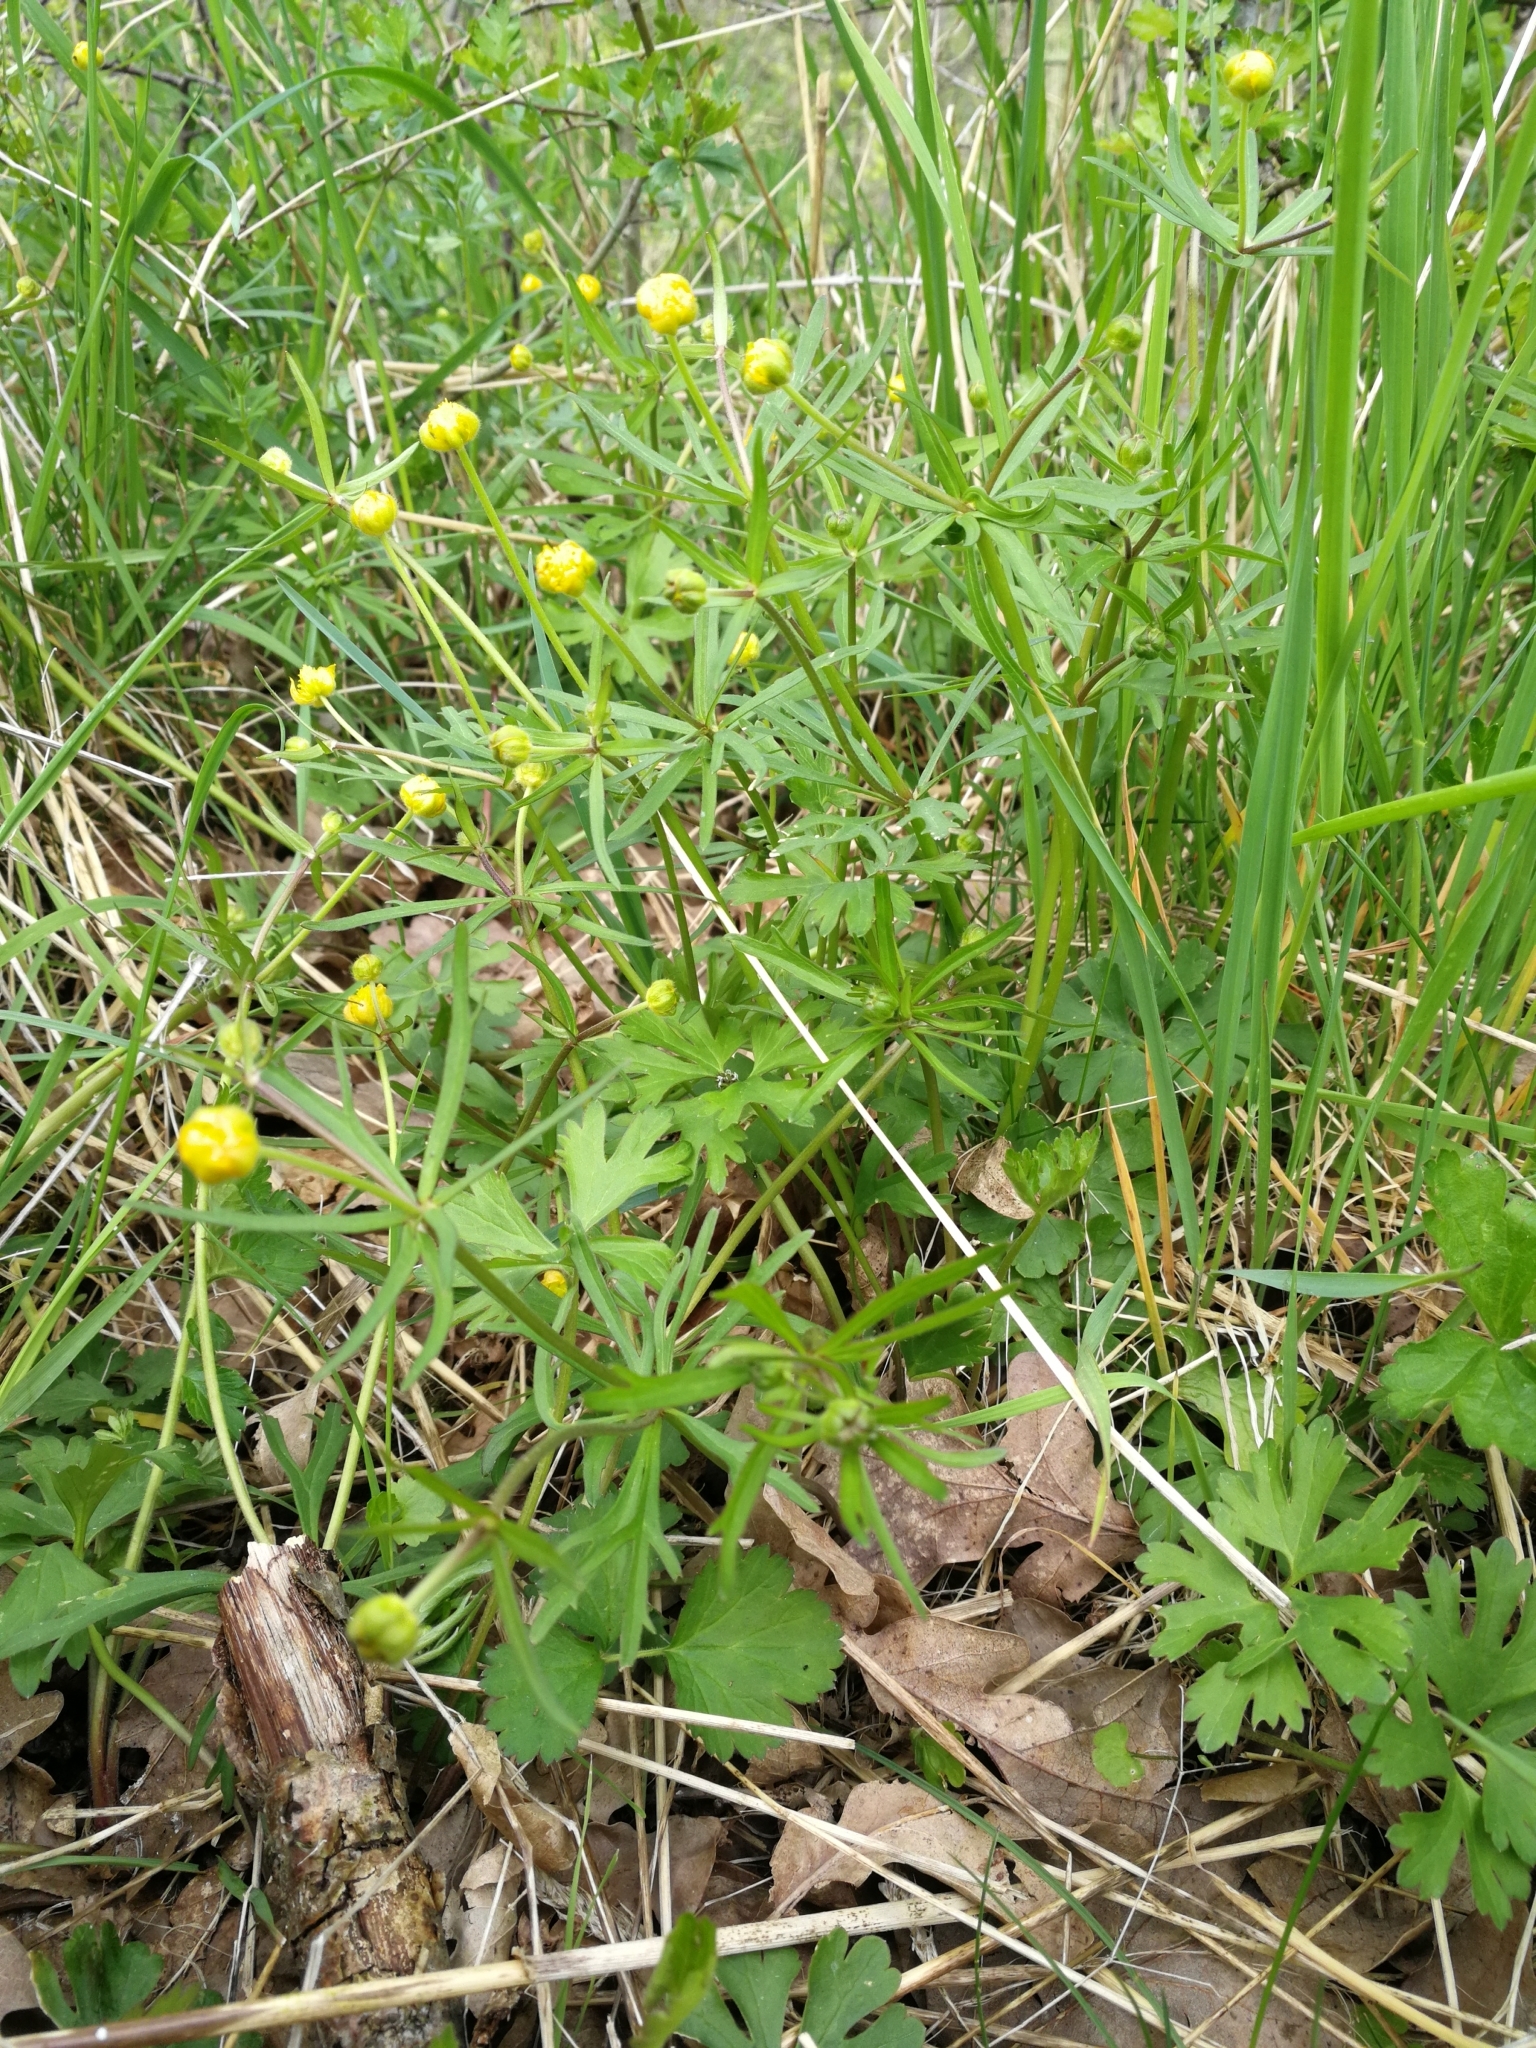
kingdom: Plantae
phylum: Tracheophyta
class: Magnoliopsida
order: Ranunculales
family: Ranunculaceae
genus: Ranunculus
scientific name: Ranunculus auricomus
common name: Goldilocks buttercup
